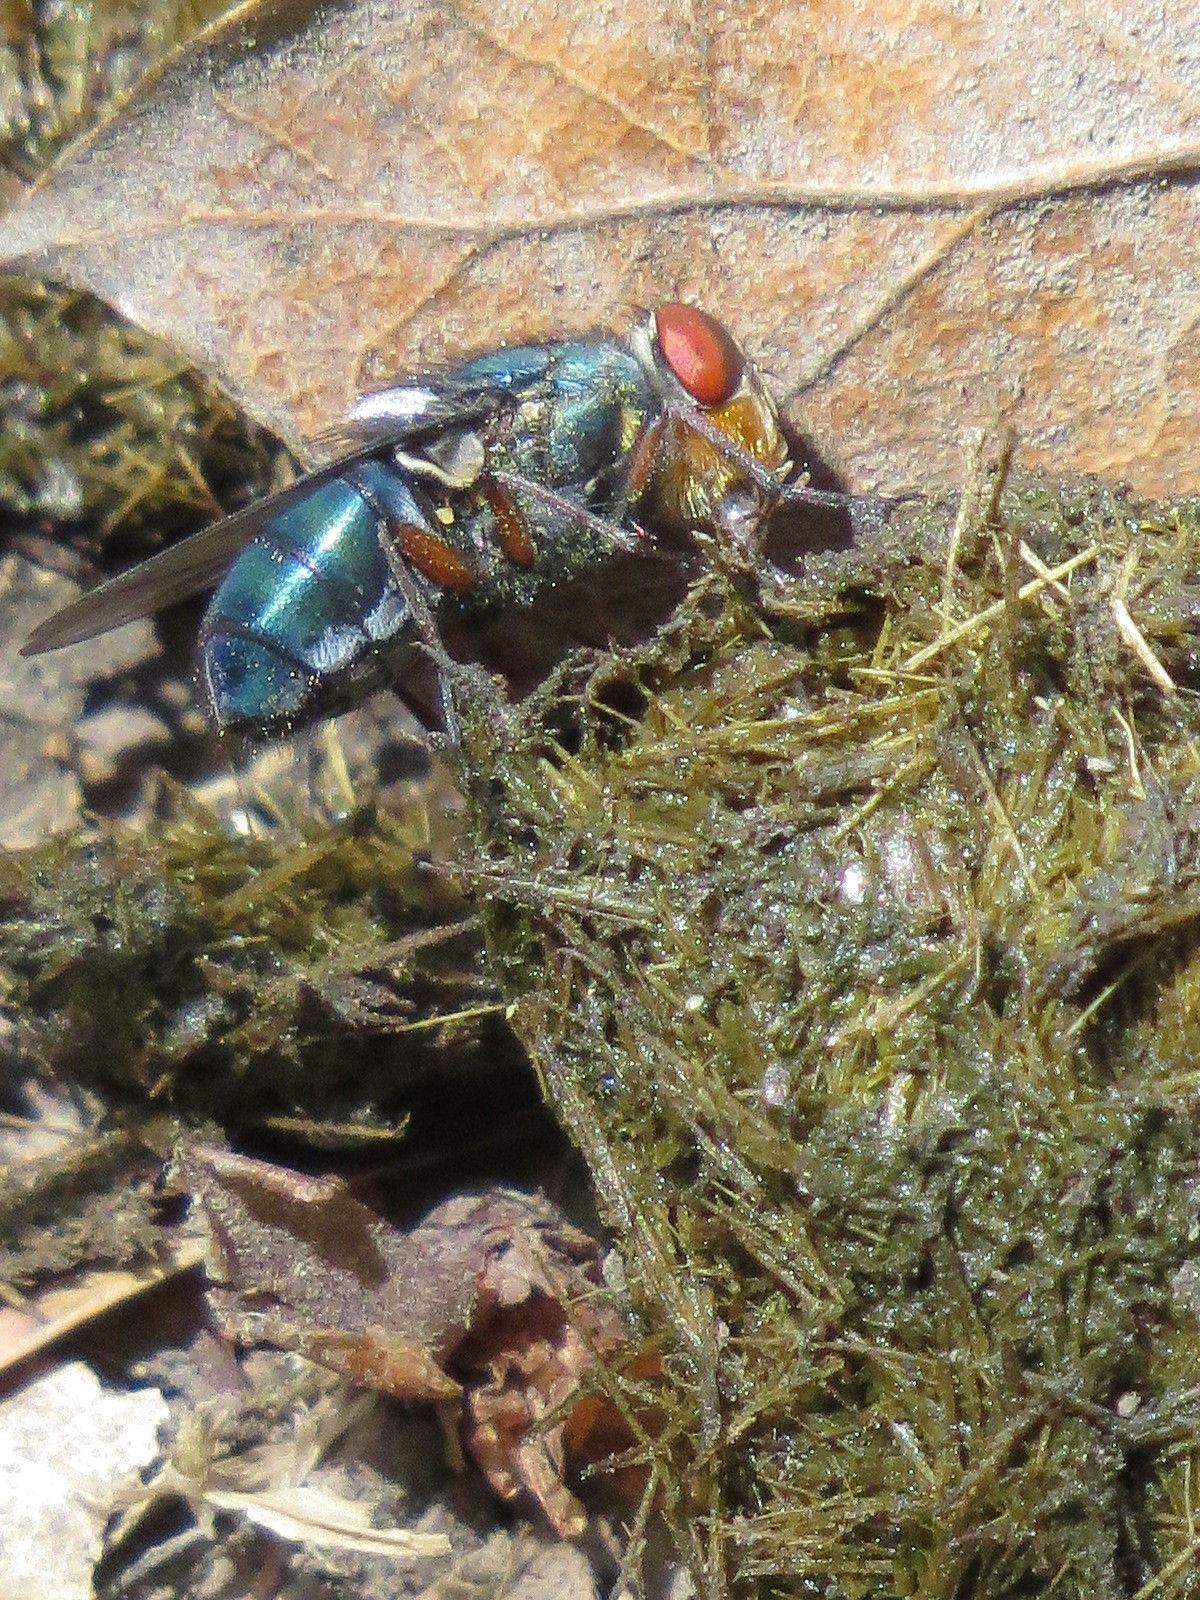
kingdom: Animalia
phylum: Arthropoda
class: Insecta
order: Diptera
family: Calliphoridae
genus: Compsomyiops
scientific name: Compsomyiops callipes
